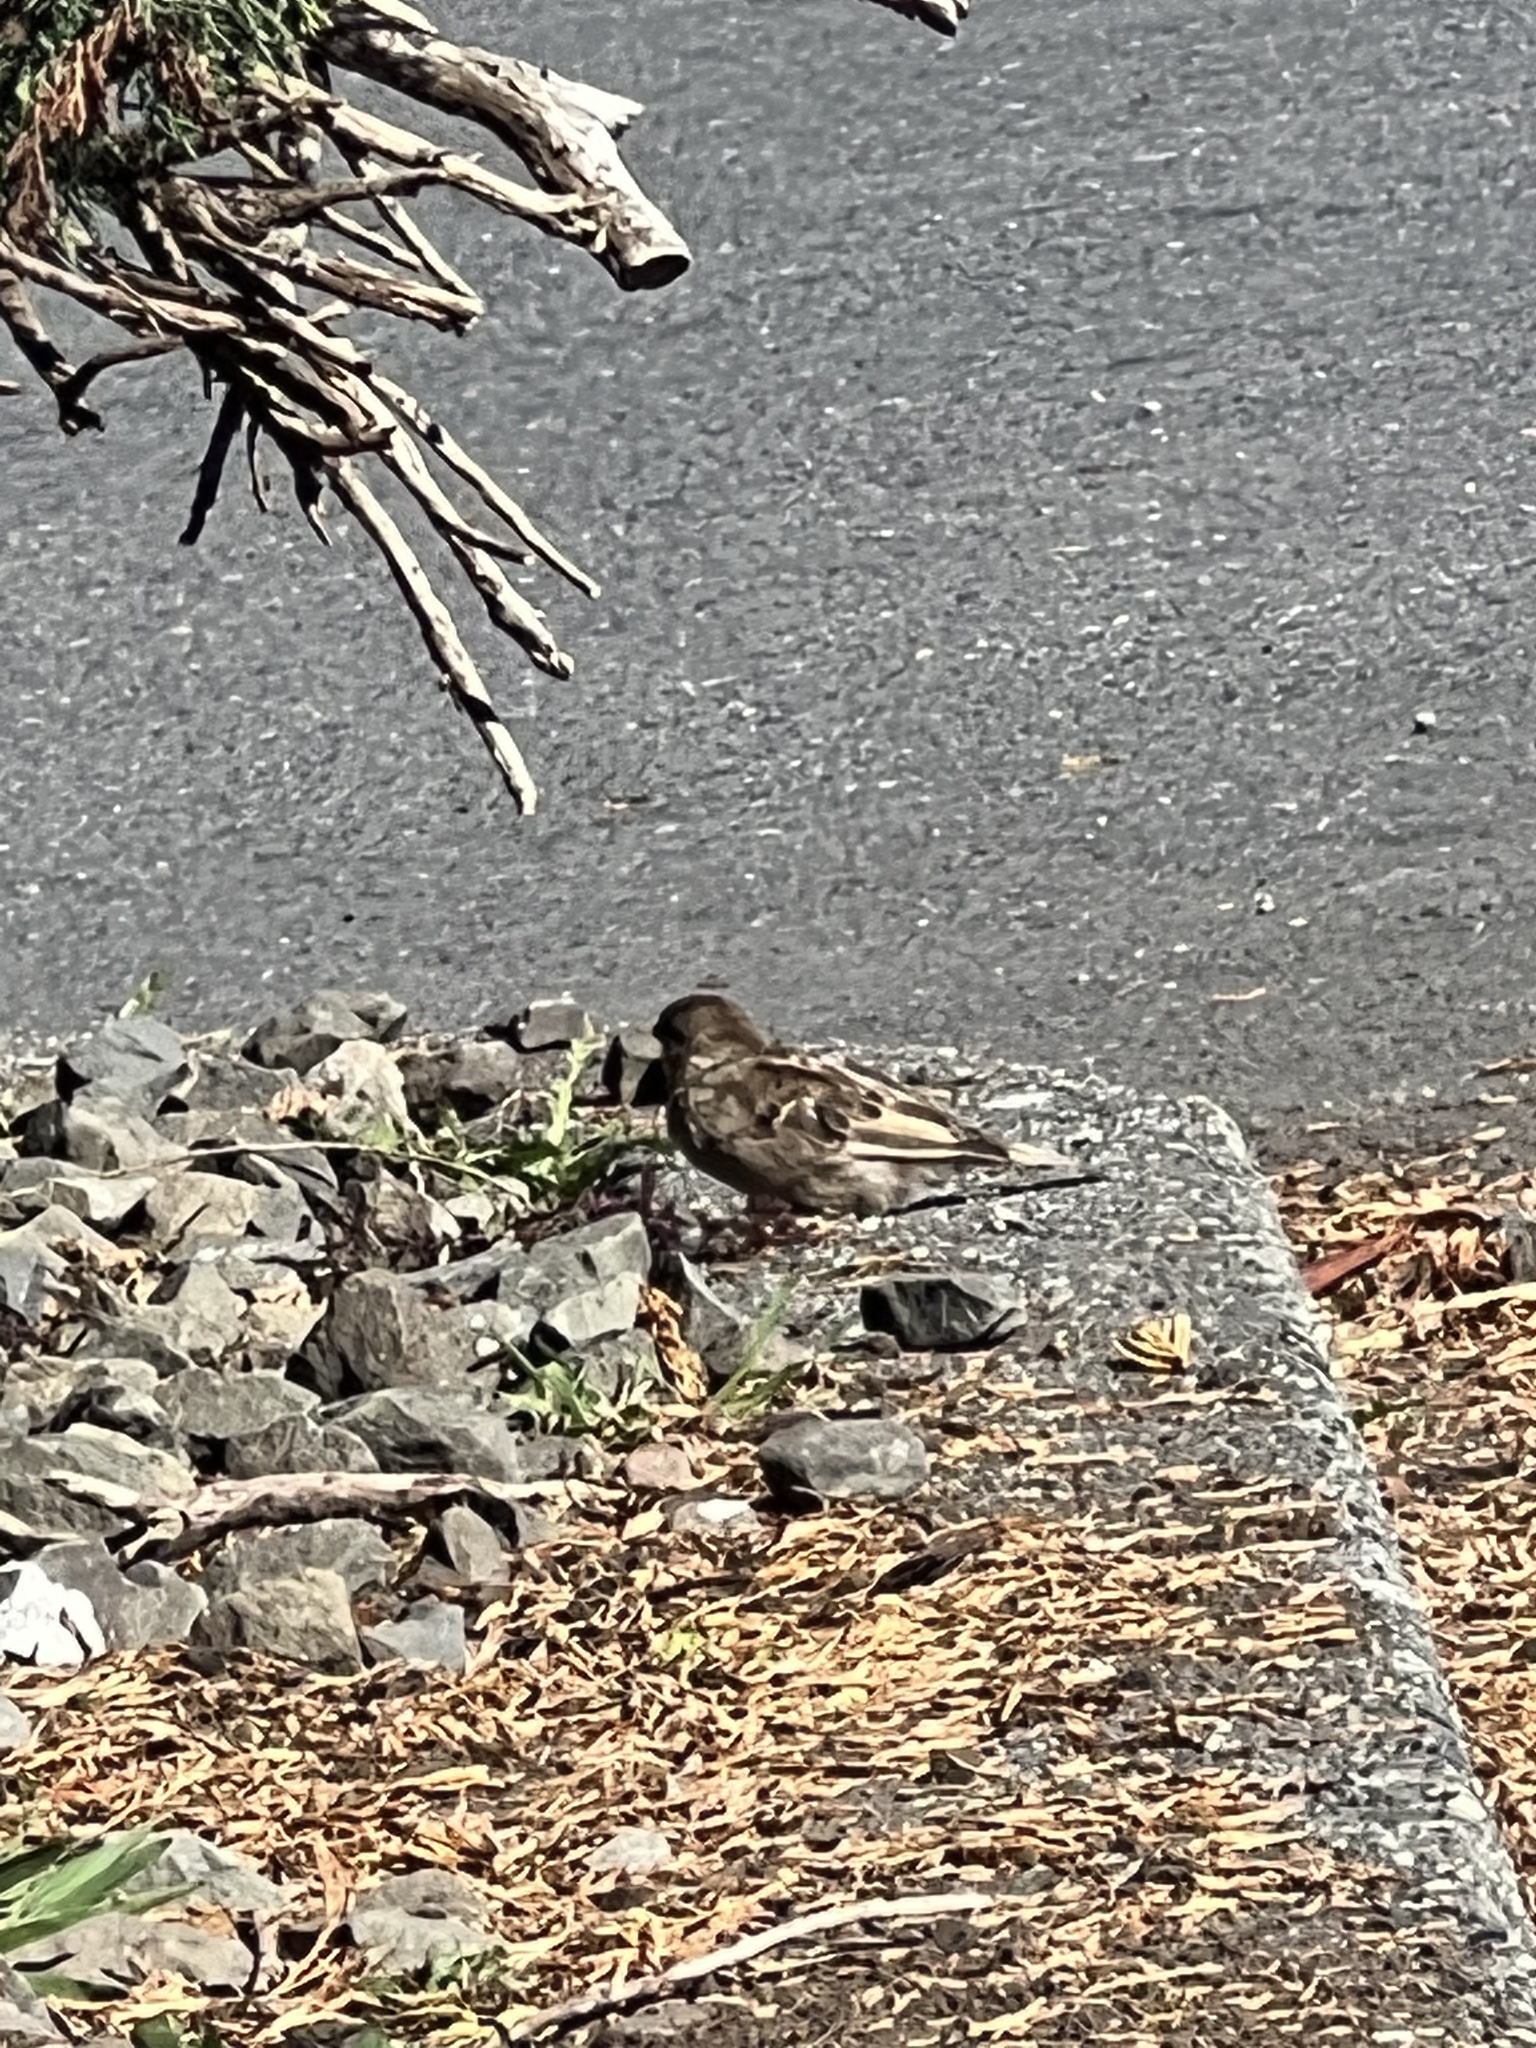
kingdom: Animalia
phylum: Chordata
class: Aves
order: Passeriformes
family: Passeridae
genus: Passer
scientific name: Passer domesticus
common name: House sparrow
